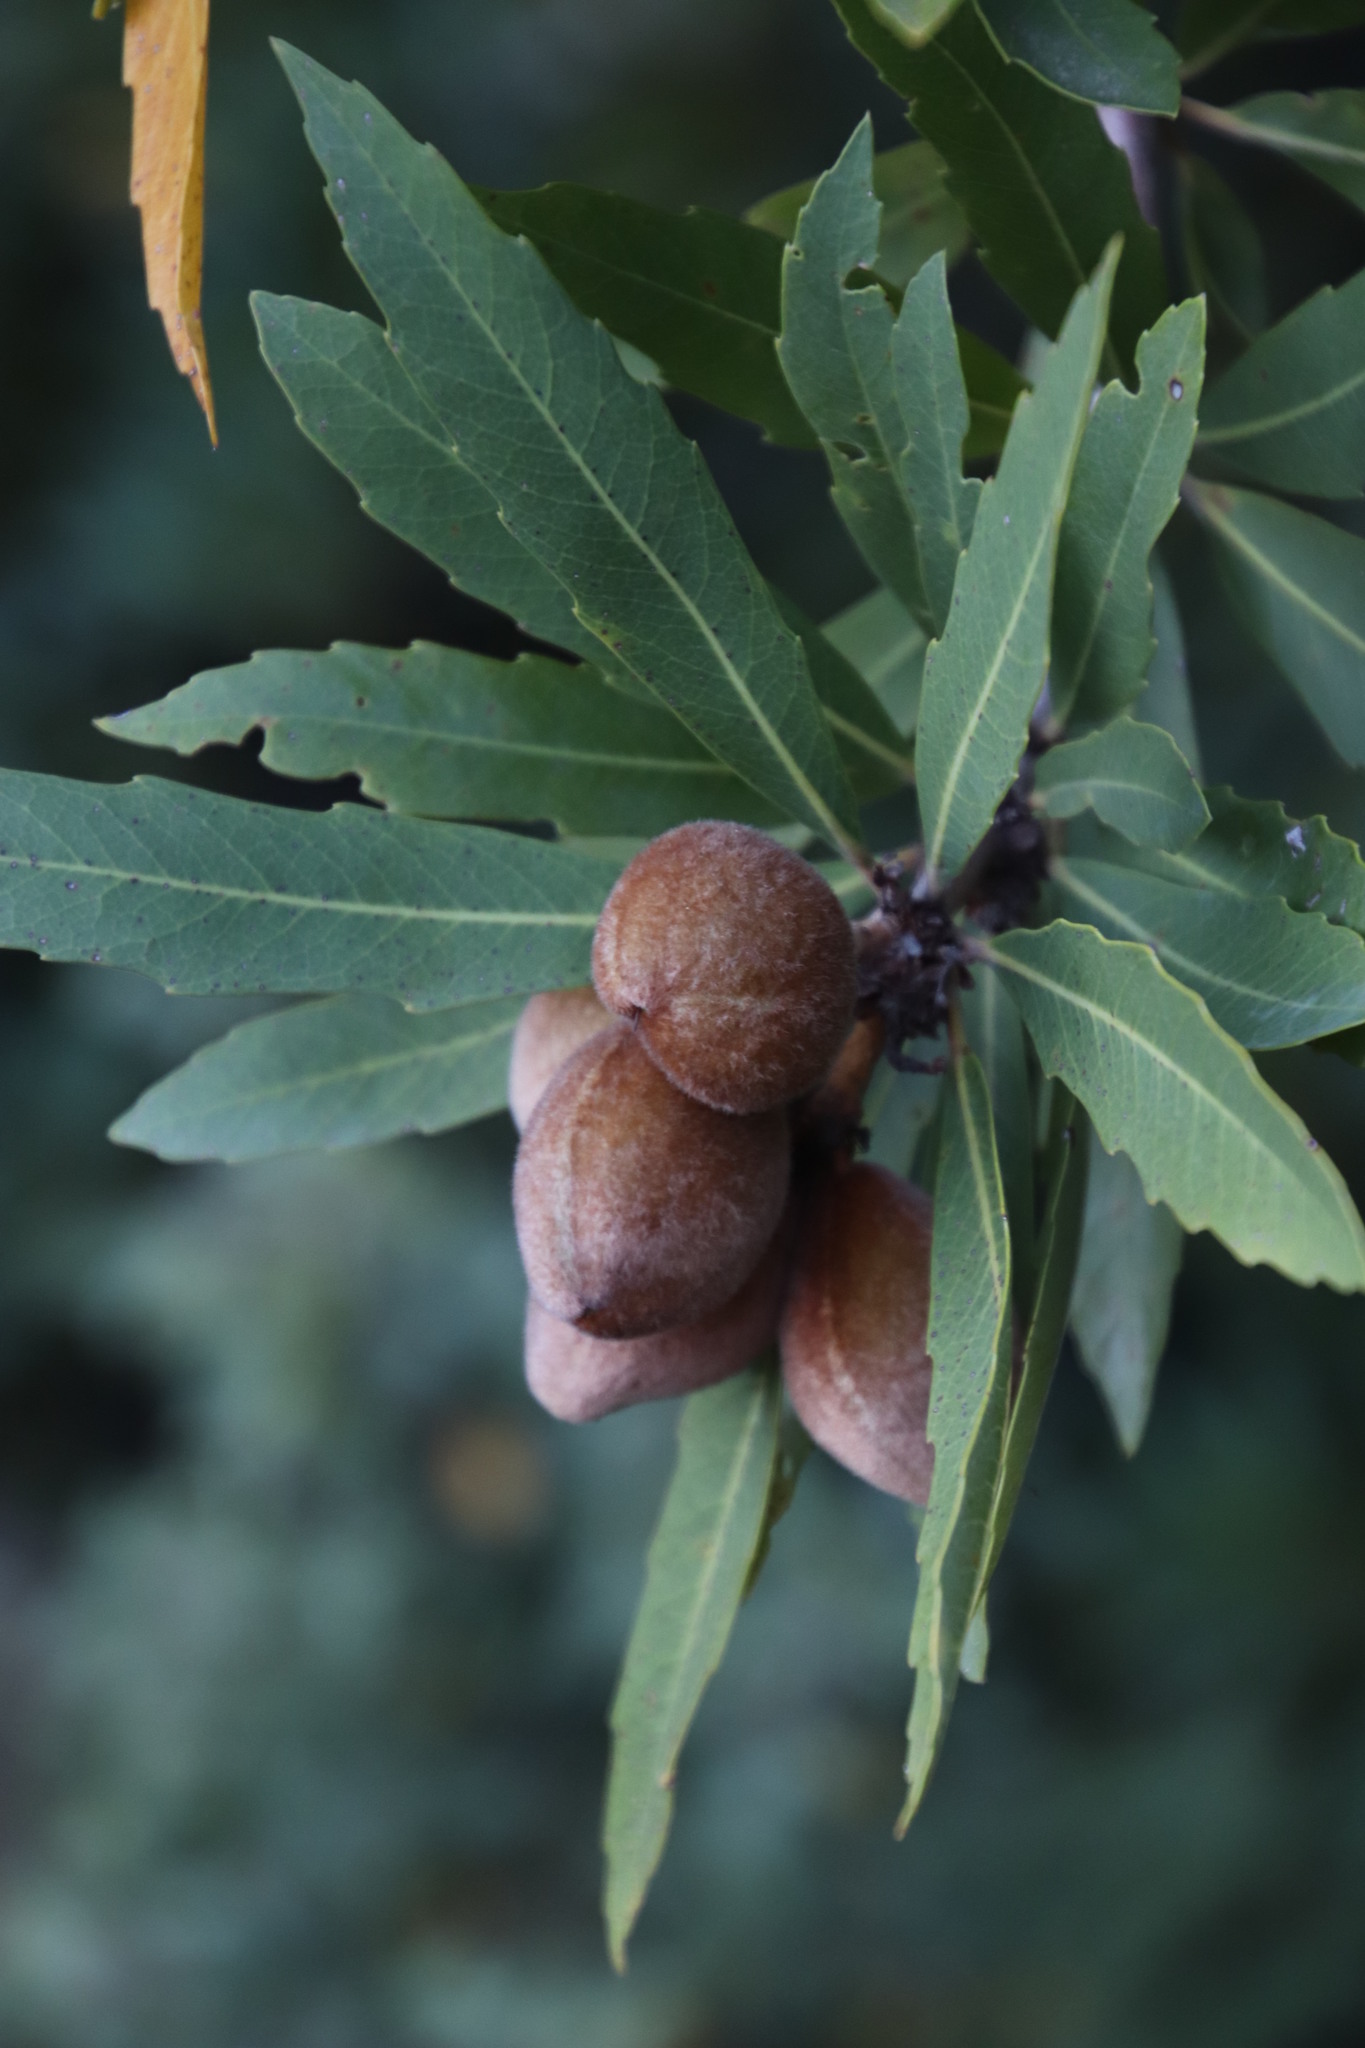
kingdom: Plantae
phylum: Tracheophyta
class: Magnoliopsida
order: Proteales
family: Proteaceae
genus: Brabejum
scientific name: Brabejum stellatifolium
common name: Wild almond
